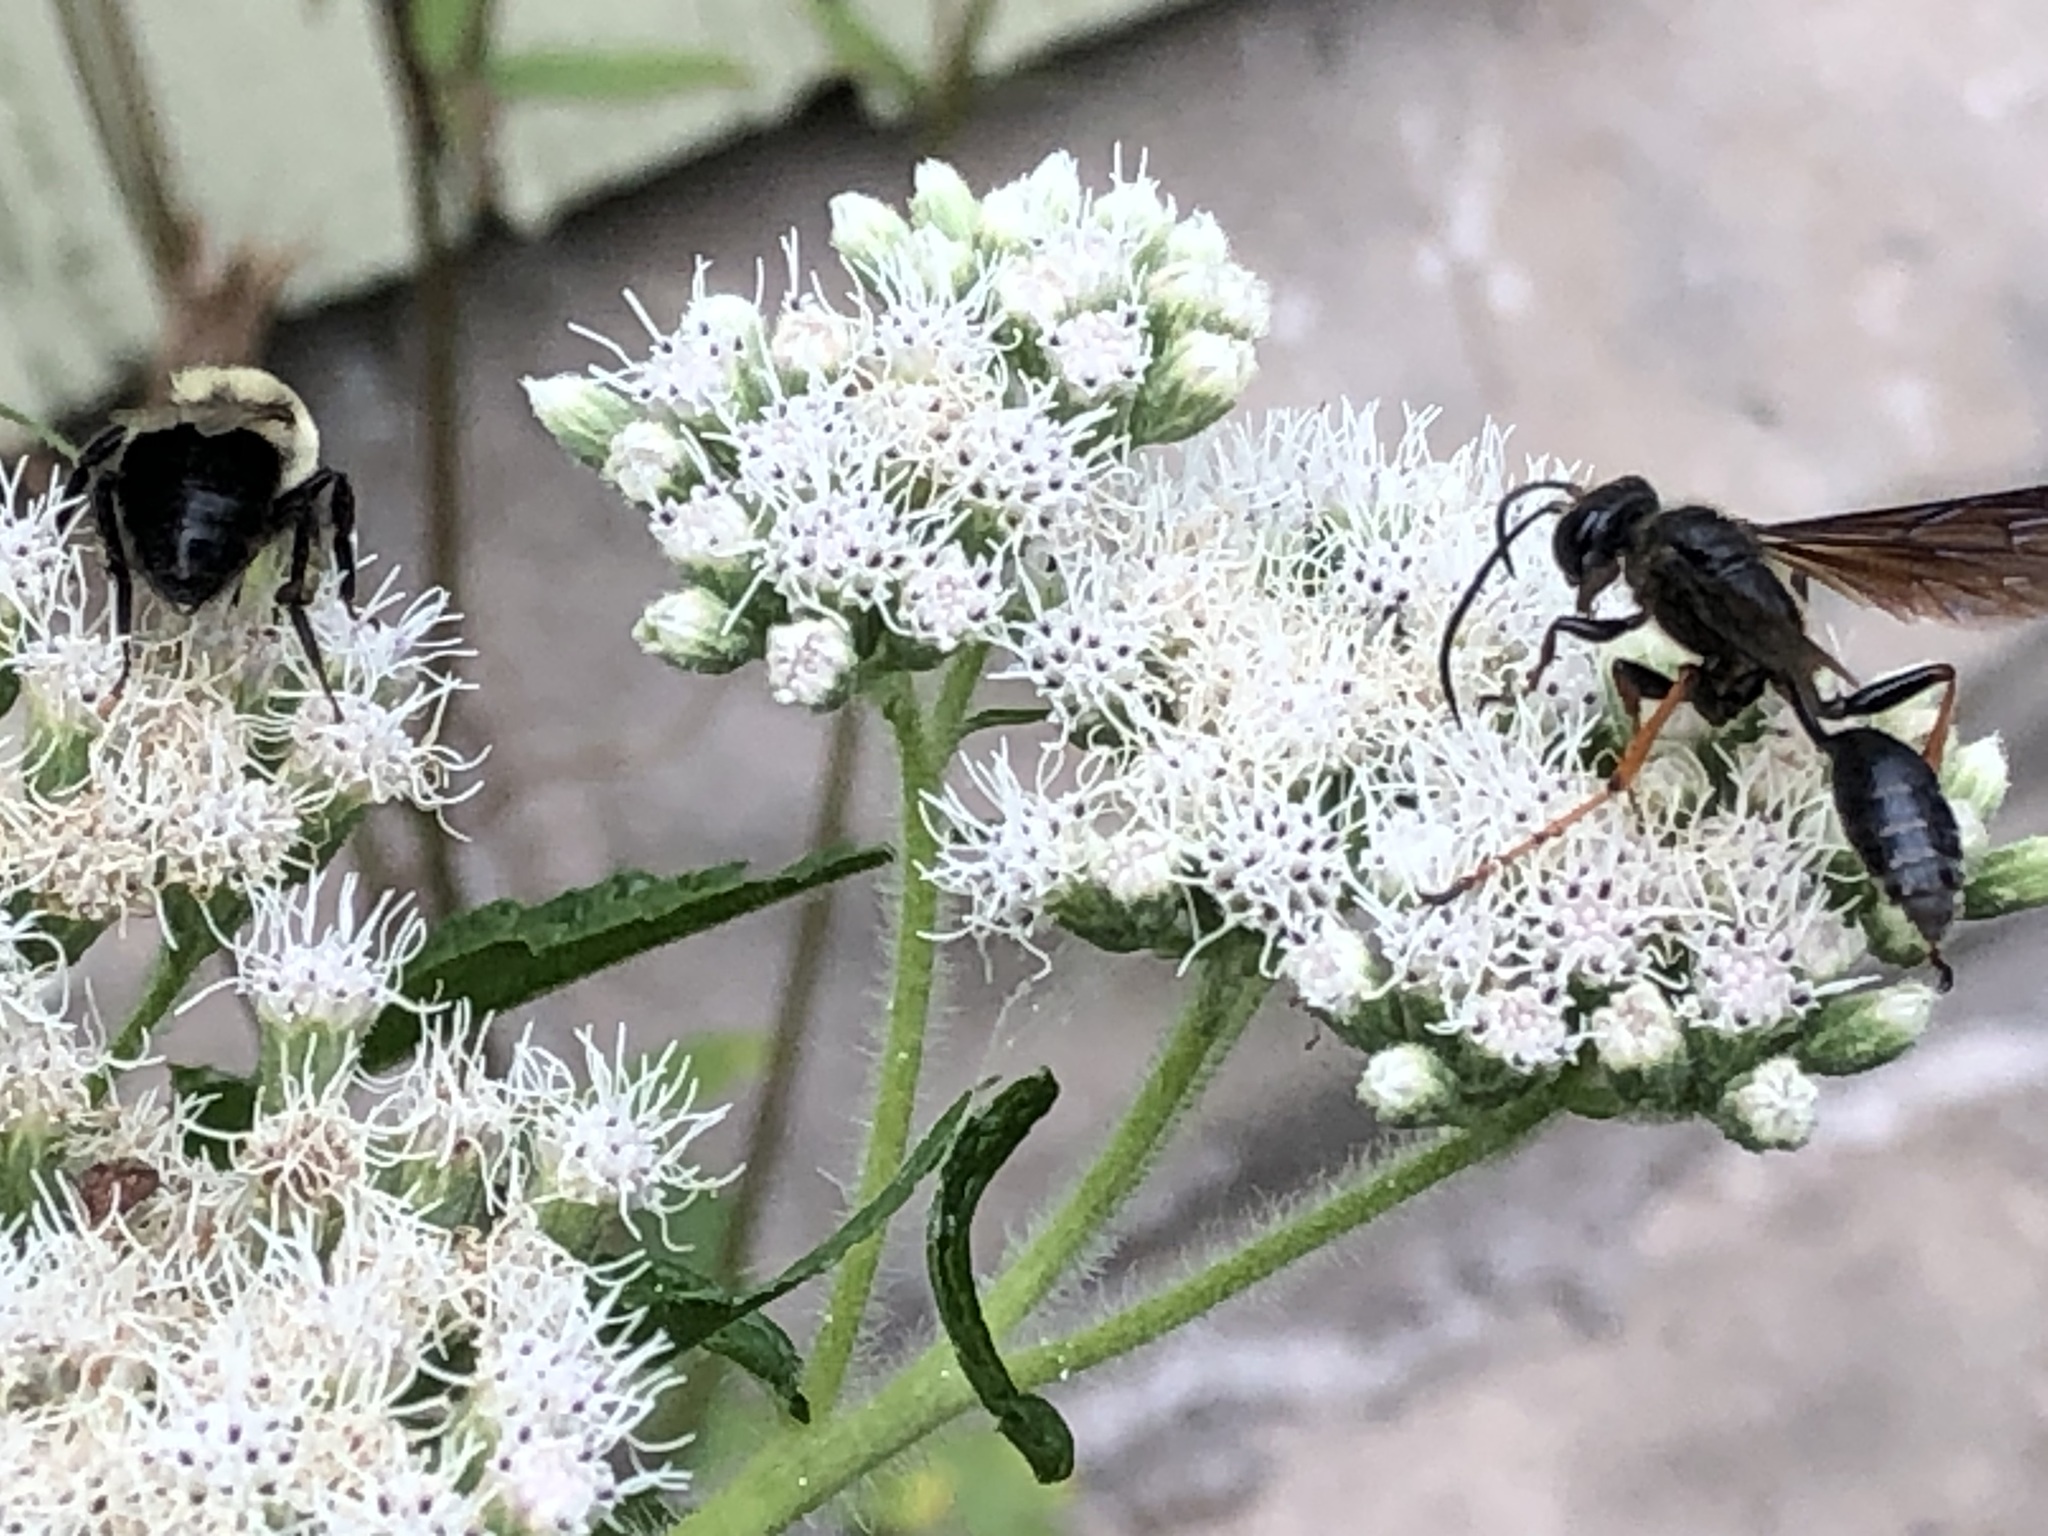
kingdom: Animalia
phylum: Arthropoda
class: Insecta
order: Hymenoptera
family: Sphecidae
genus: Isodontia
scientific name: Isodontia auripes
